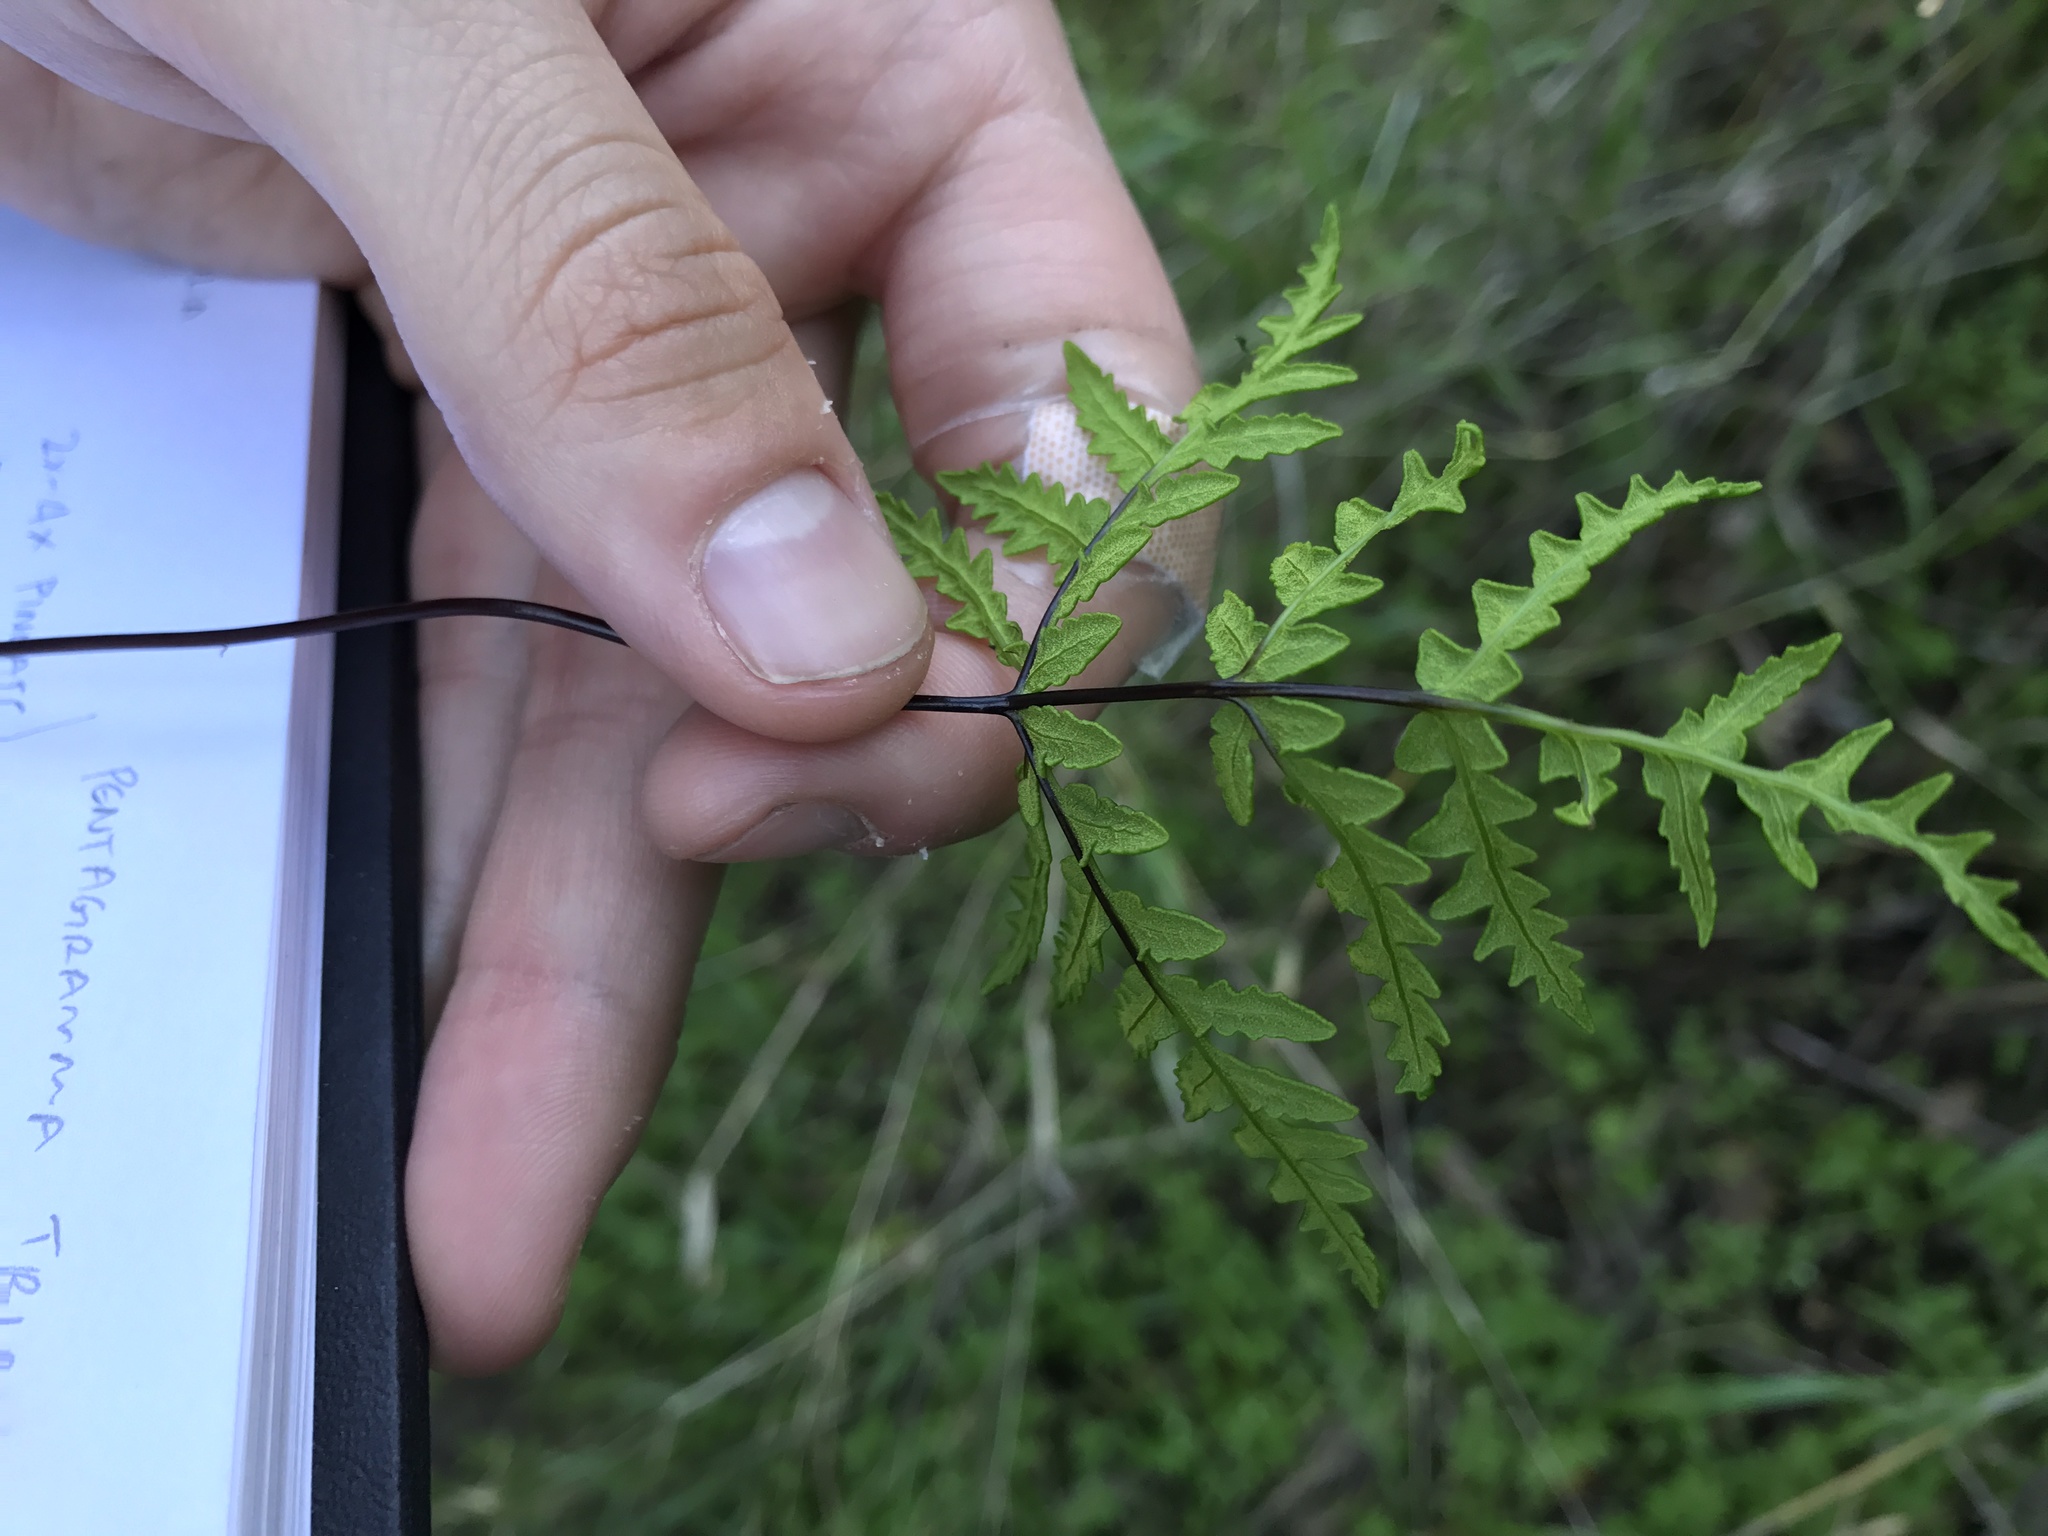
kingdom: Plantae
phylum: Tracheophyta
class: Polypodiopsida
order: Polypodiales
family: Pteridaceae
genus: Pentagramma
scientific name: Pentagramma triangularis
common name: Gold fern
